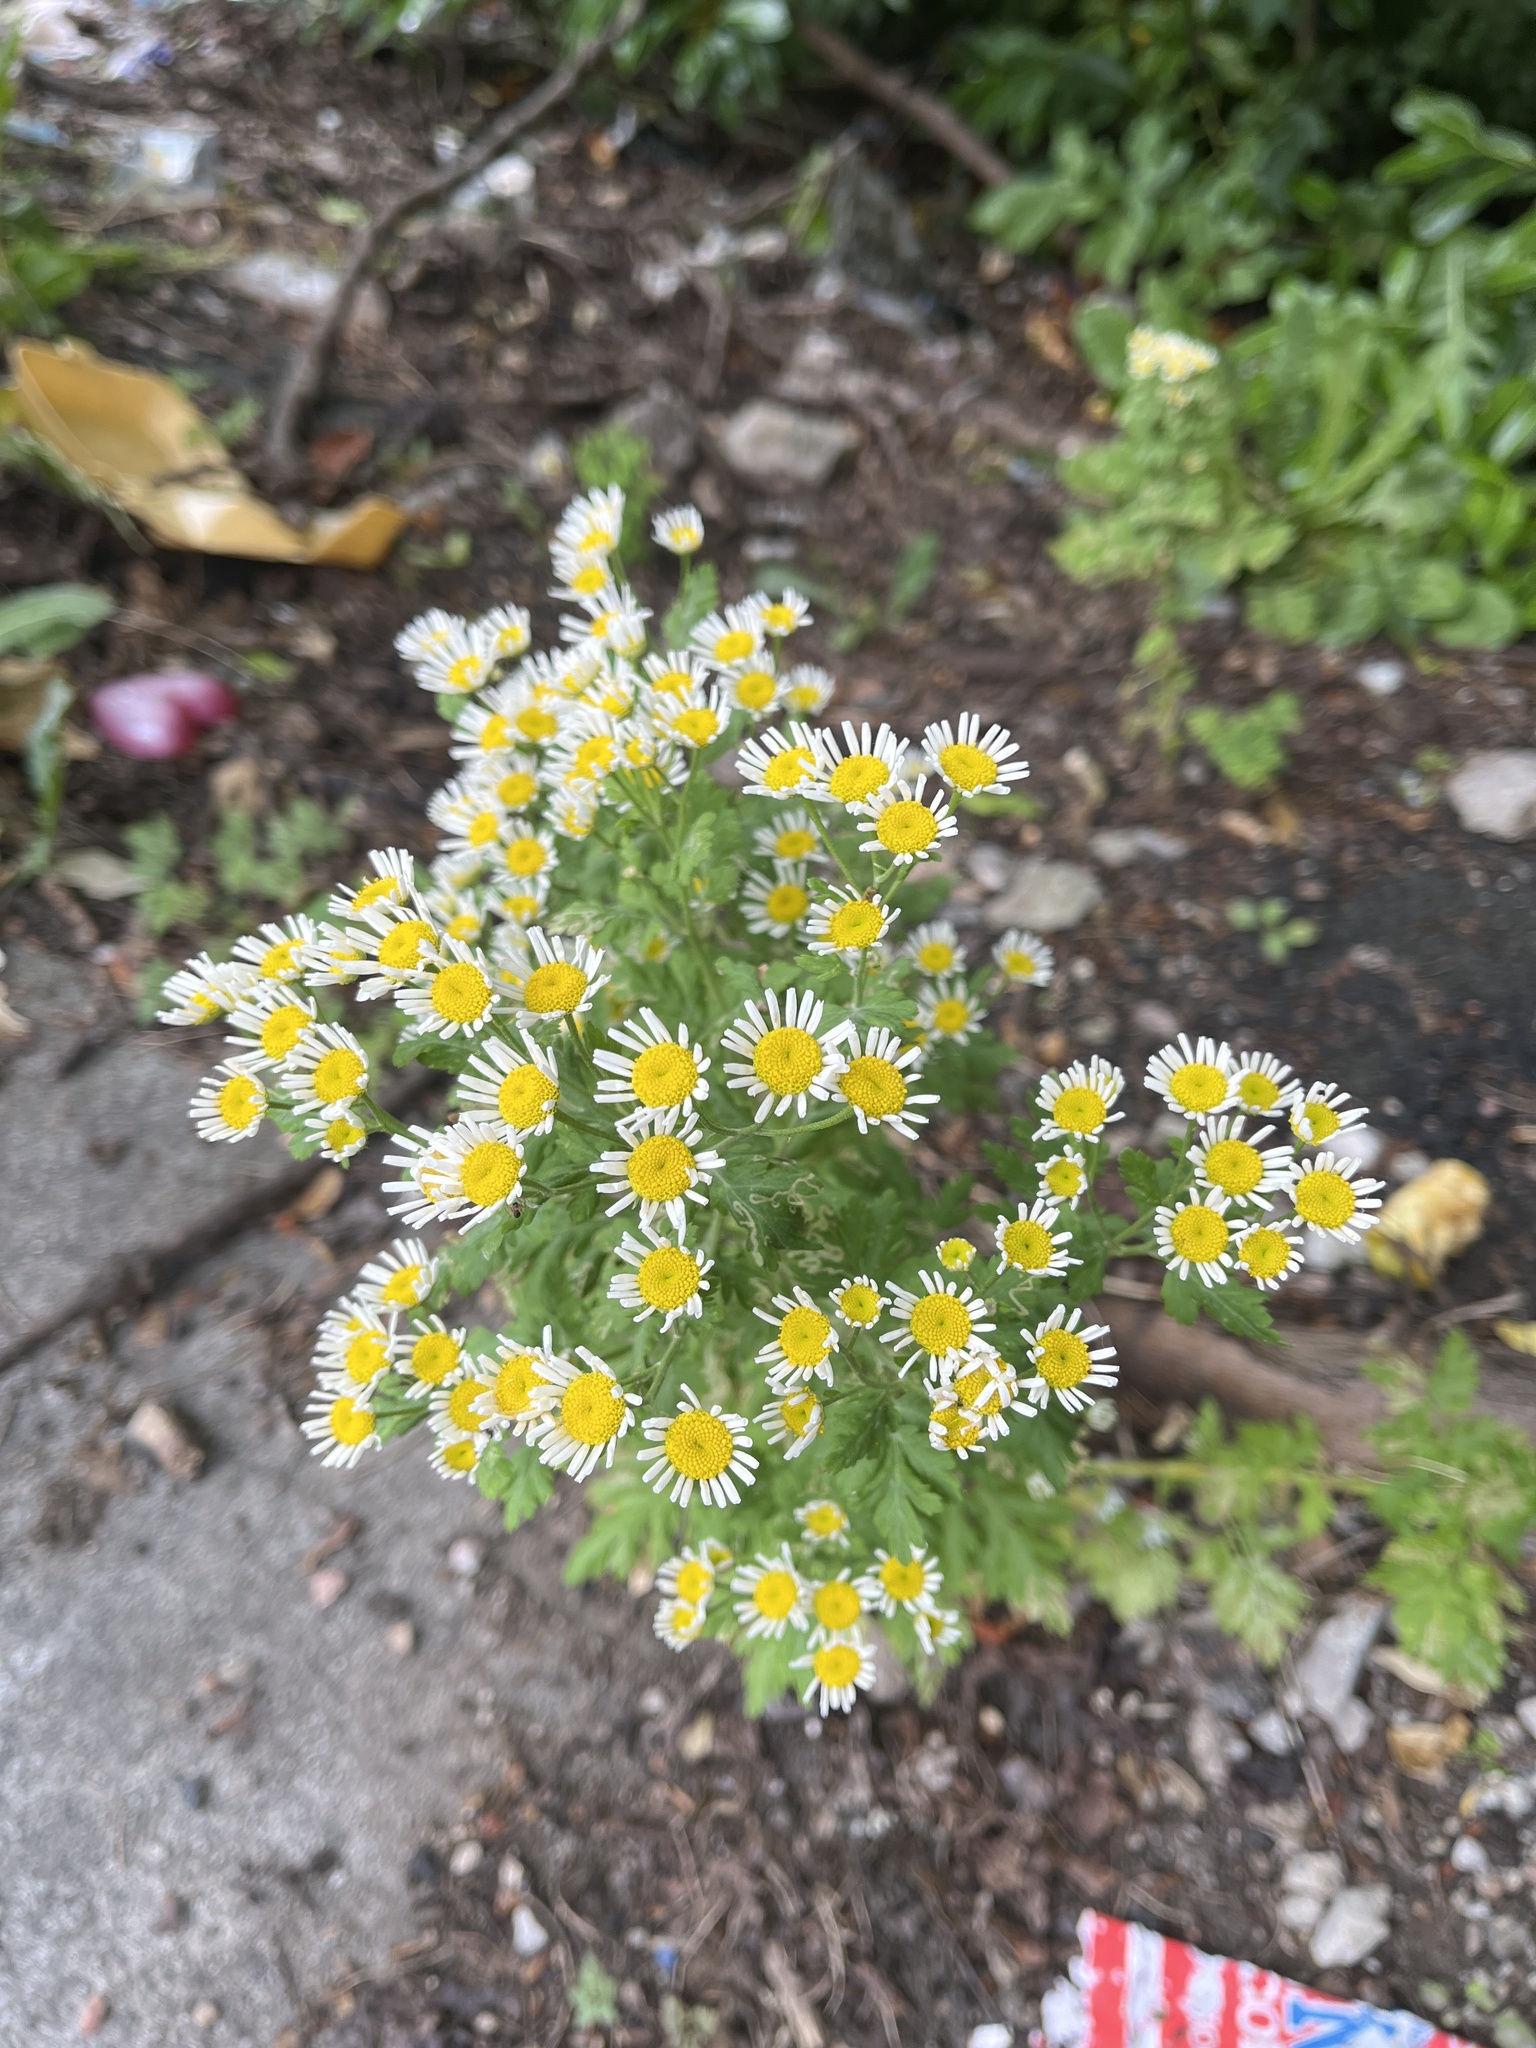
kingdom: Plantae
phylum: Tracheophyta
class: Magnoliopsida
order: Asterales
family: Asteraceae
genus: Tanacetum
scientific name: Tanacetum parthenium
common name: Feverfew
